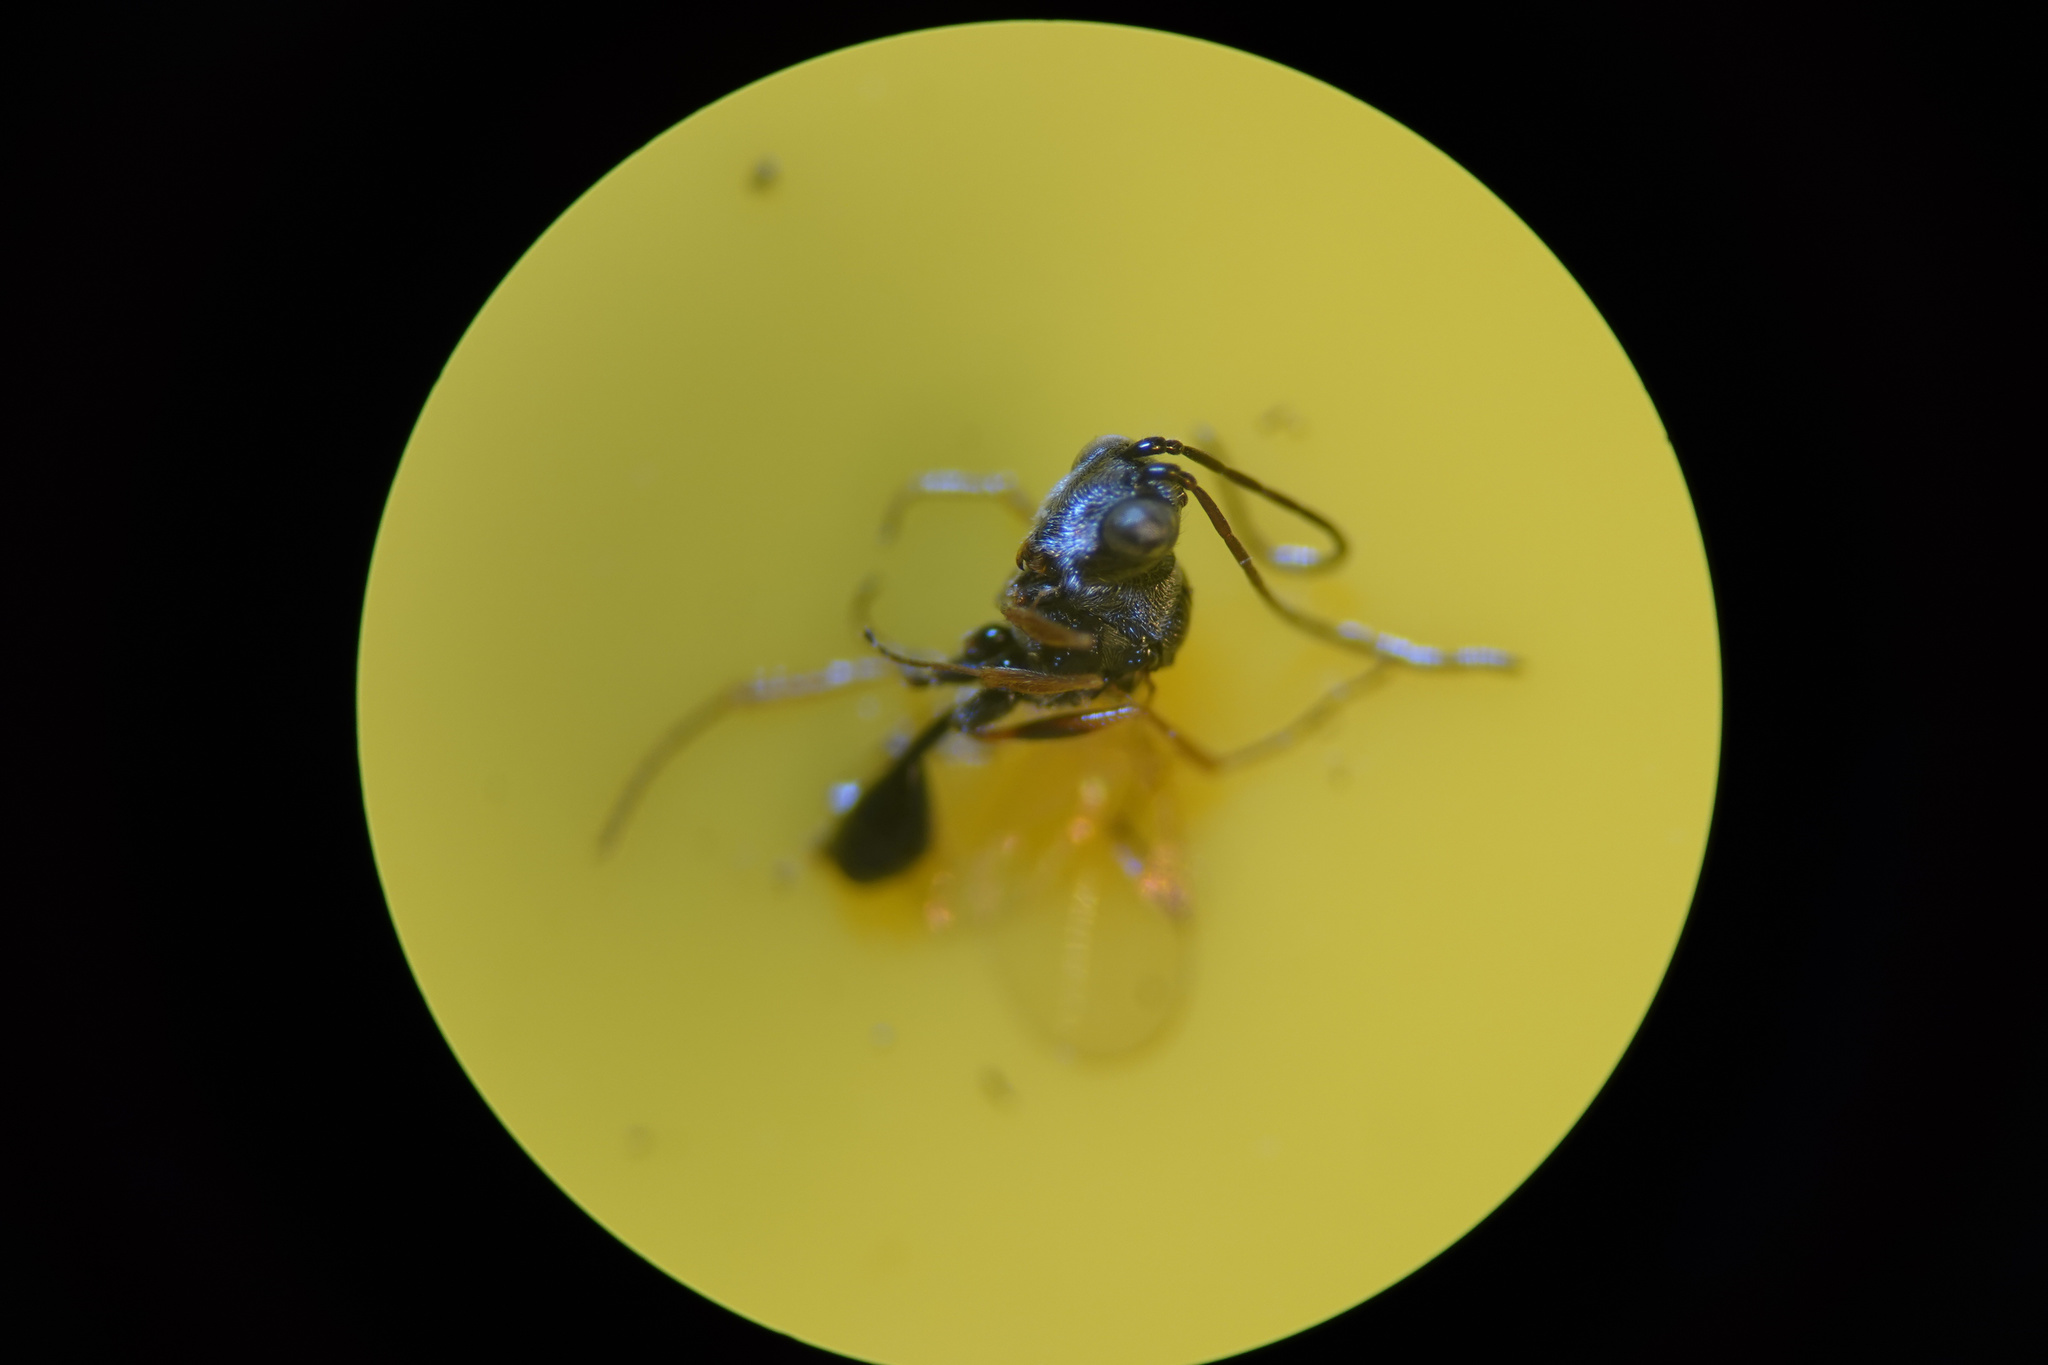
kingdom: Animalia
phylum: Arthropoda
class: Insecta
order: Hymenoptera
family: Figitidae
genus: Anacharis
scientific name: Anacharis zealandica
